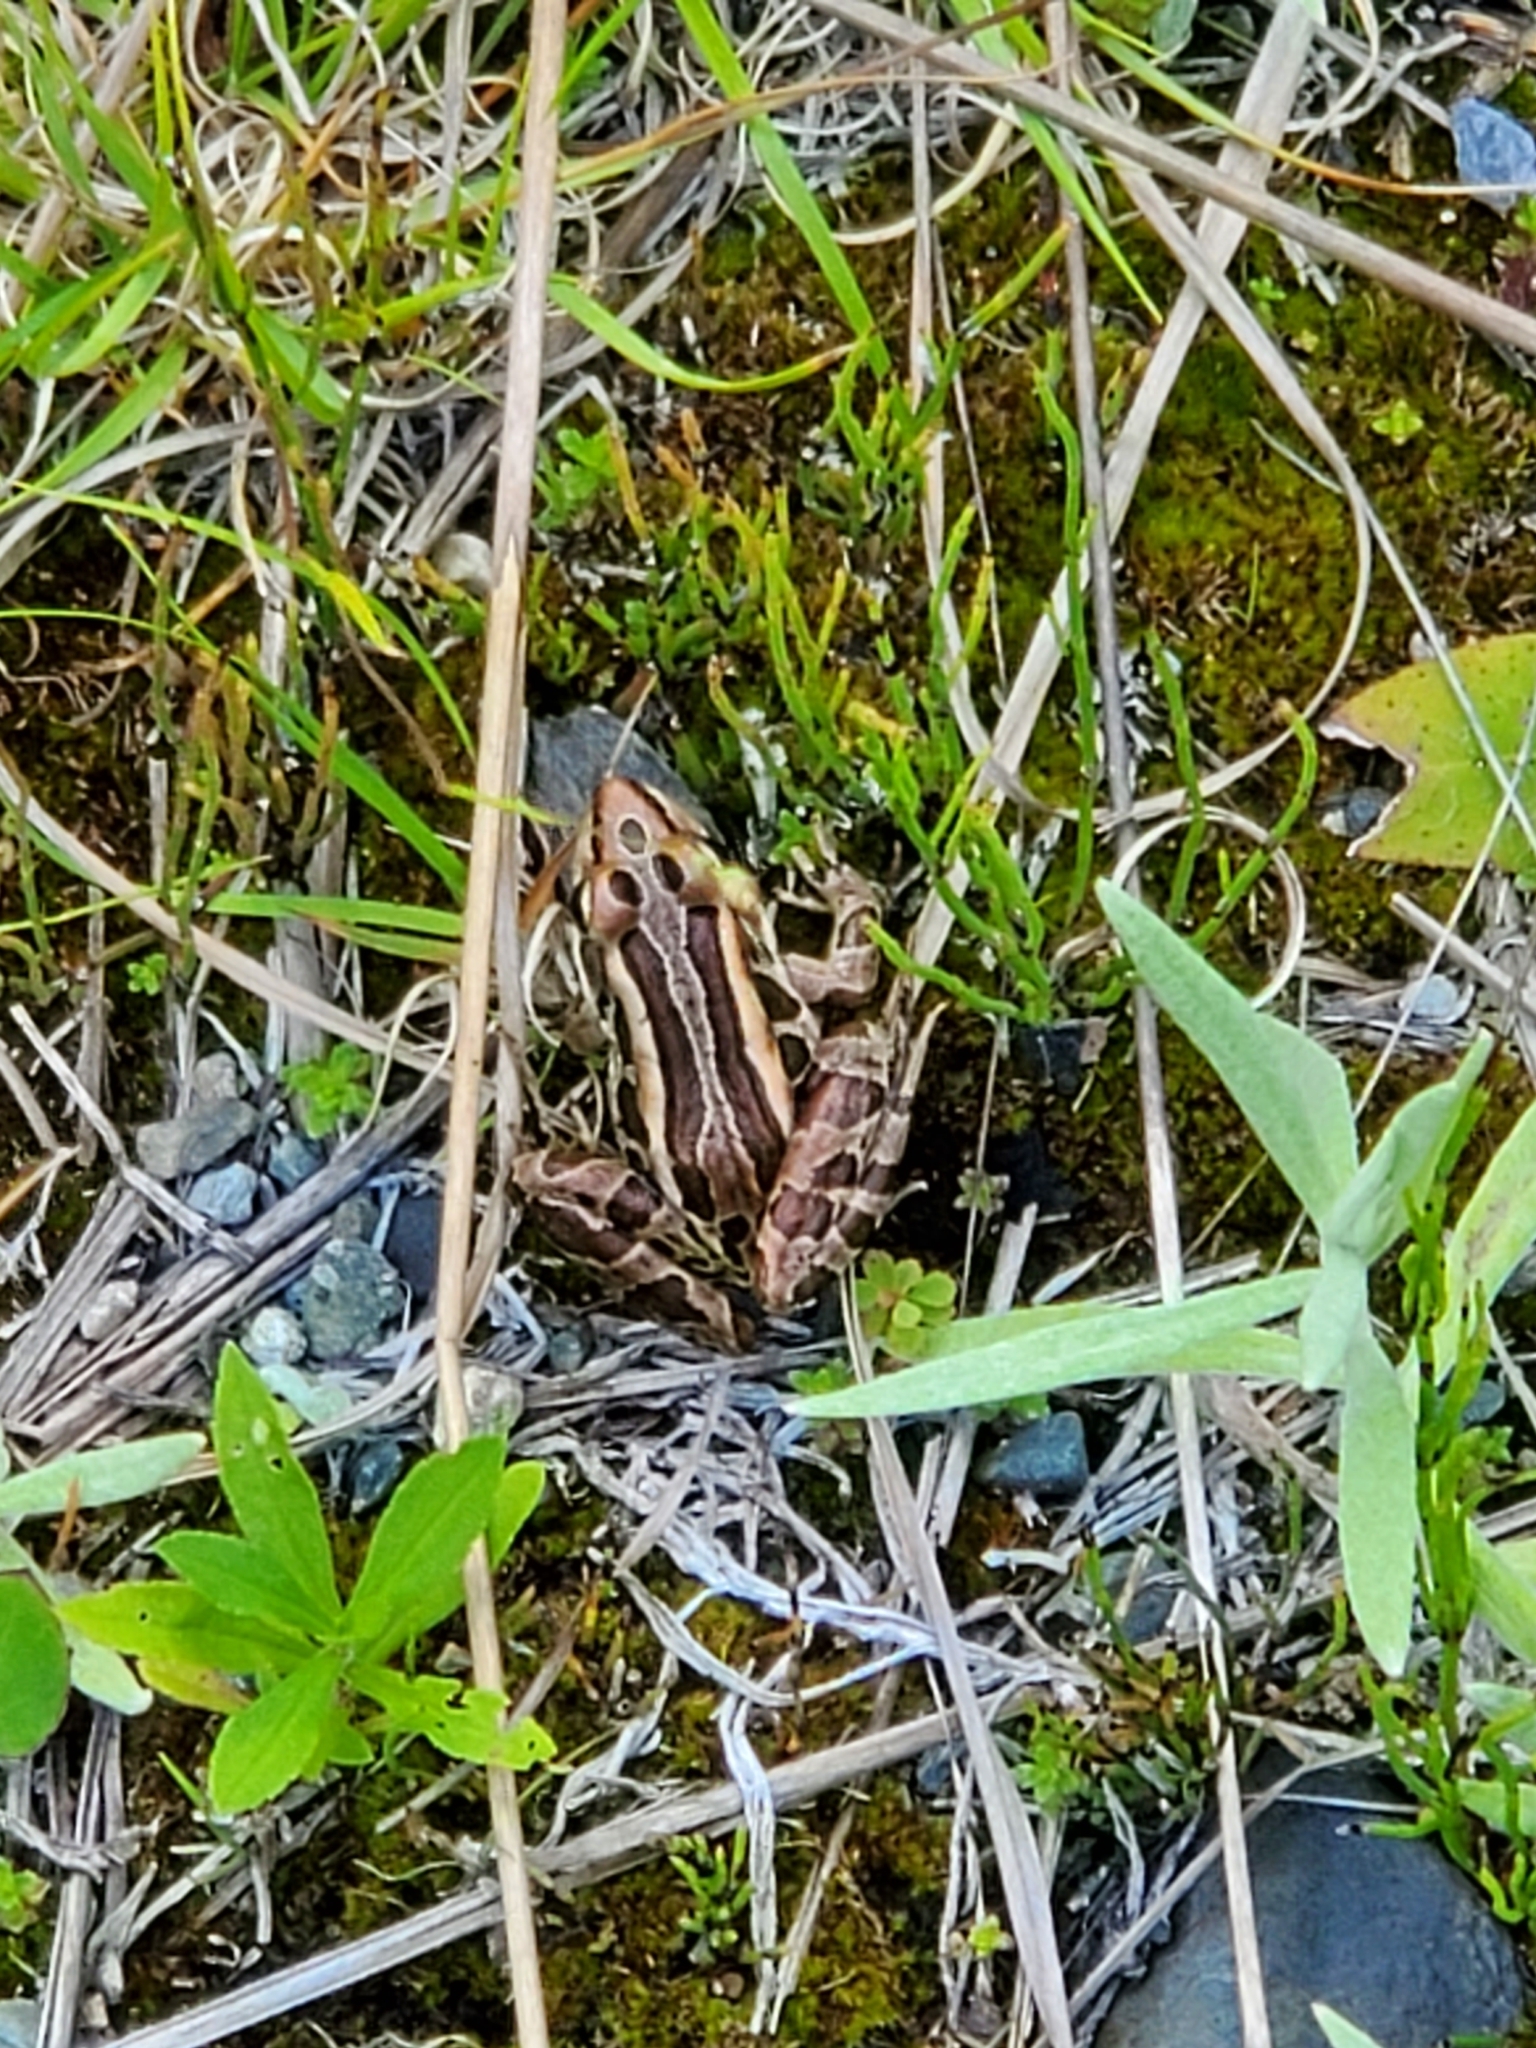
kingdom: Animalia
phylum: Chordata
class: Amphibia
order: Anura
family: Ranidae
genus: Lithobates
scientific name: Lithobates pipiens
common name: Northern leopard frog
